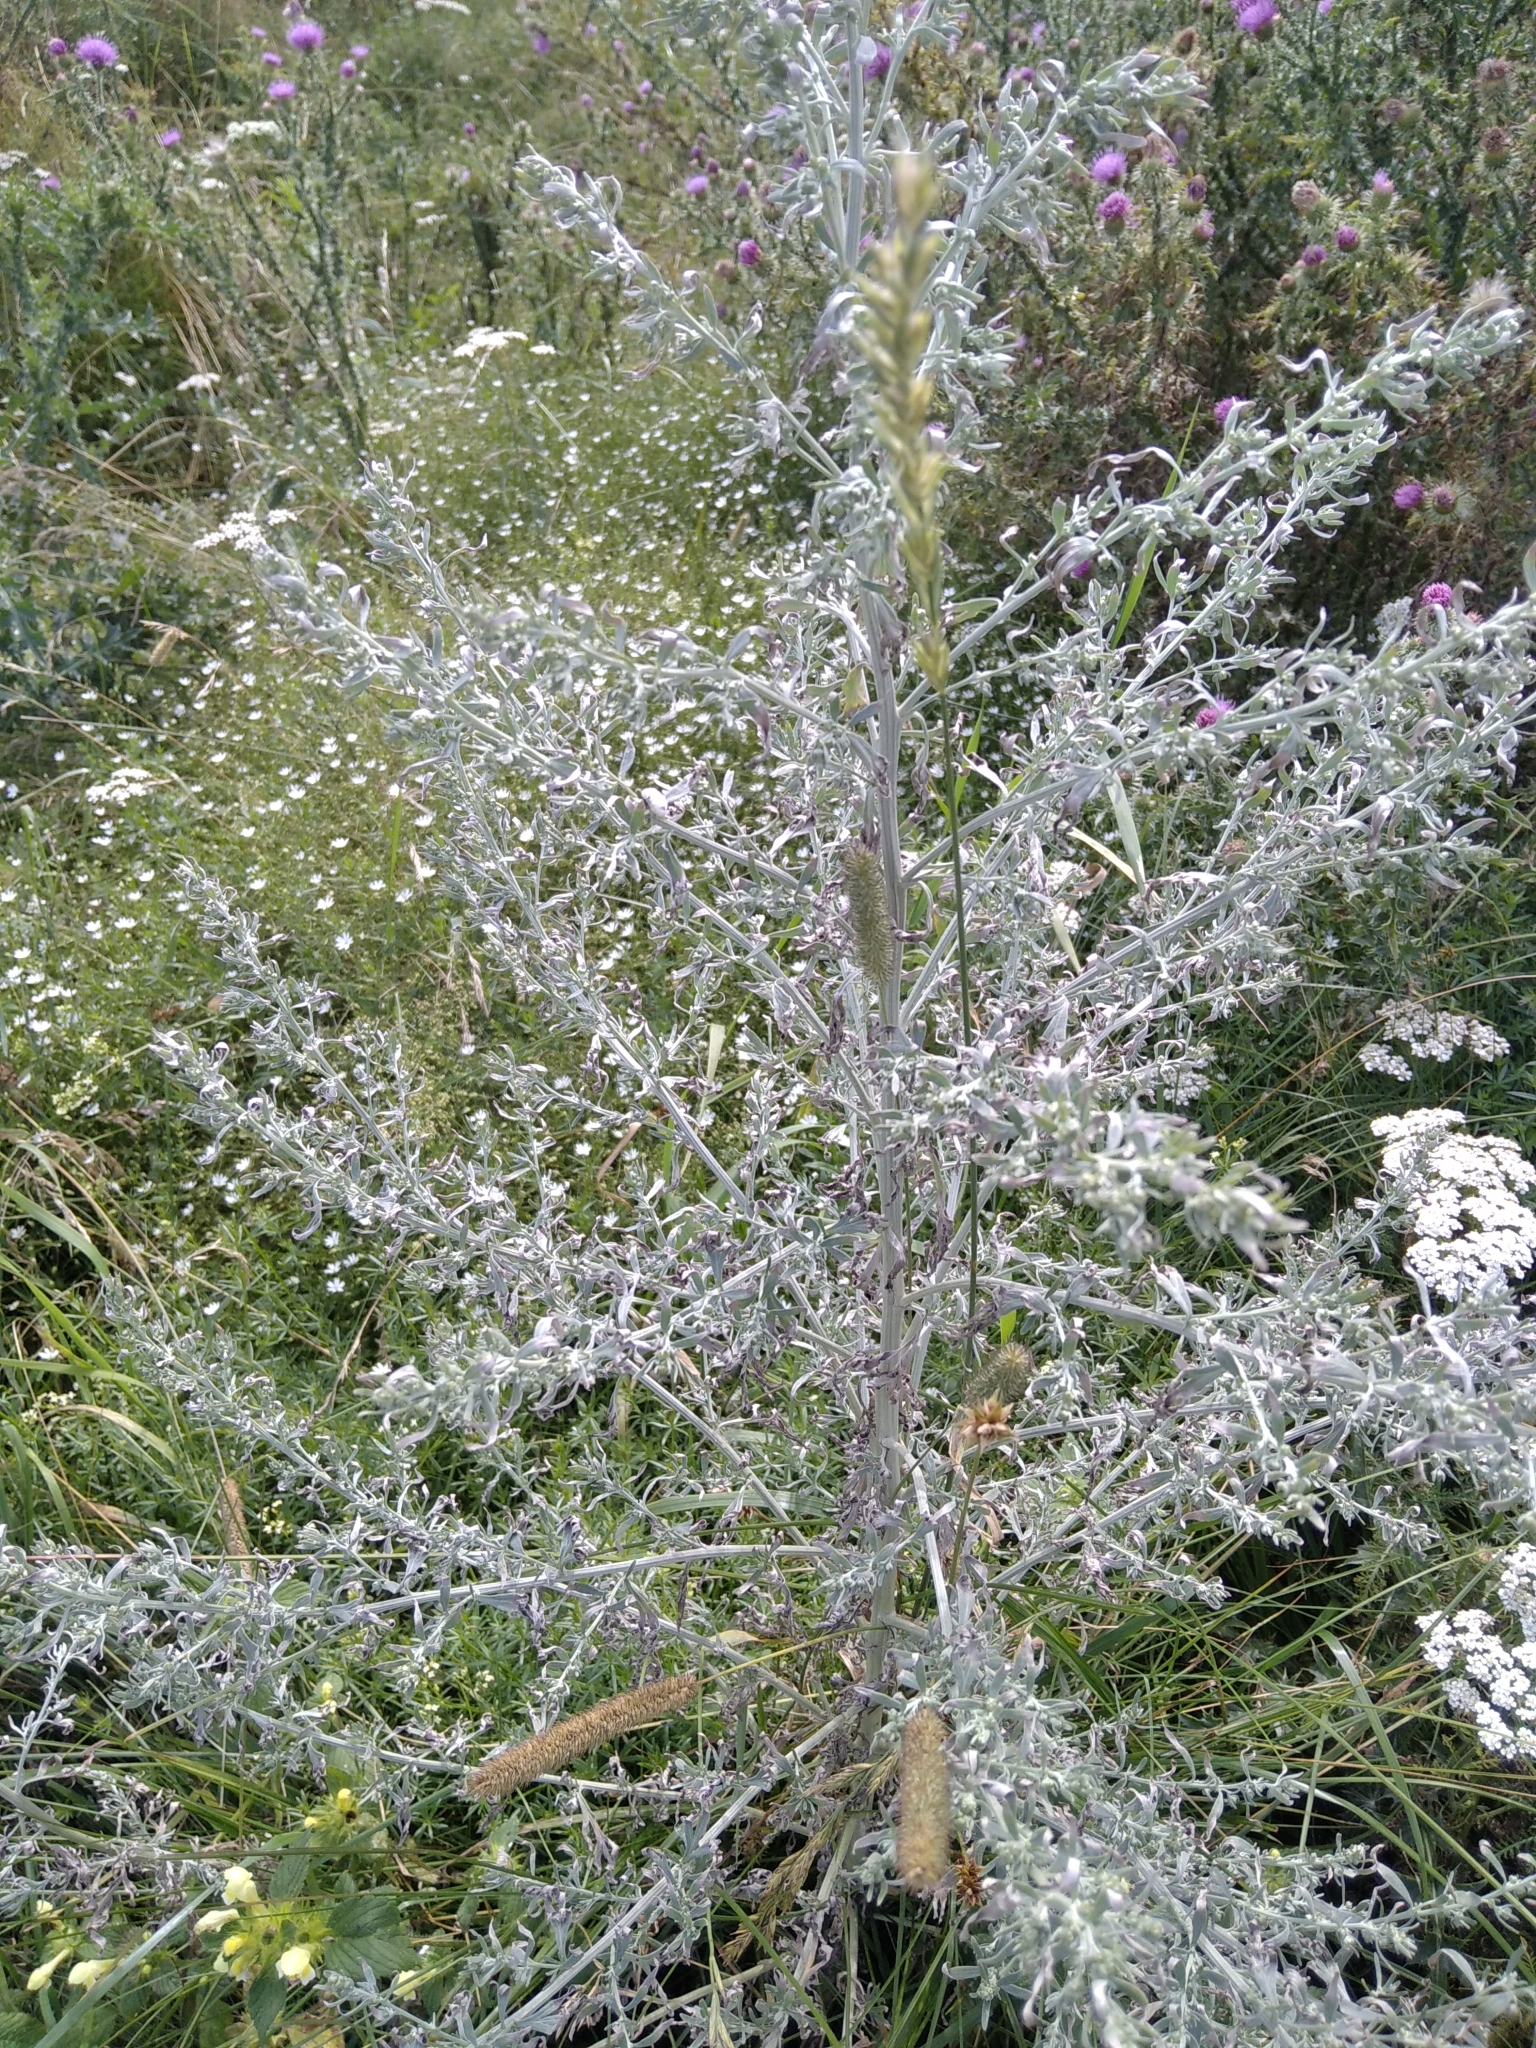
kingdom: Plantae
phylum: Tracheophyta
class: Magnoliopsida
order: Asterales
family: Asteraceae
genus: Artemisia
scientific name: Artemisia absinthium
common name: Wormwood
